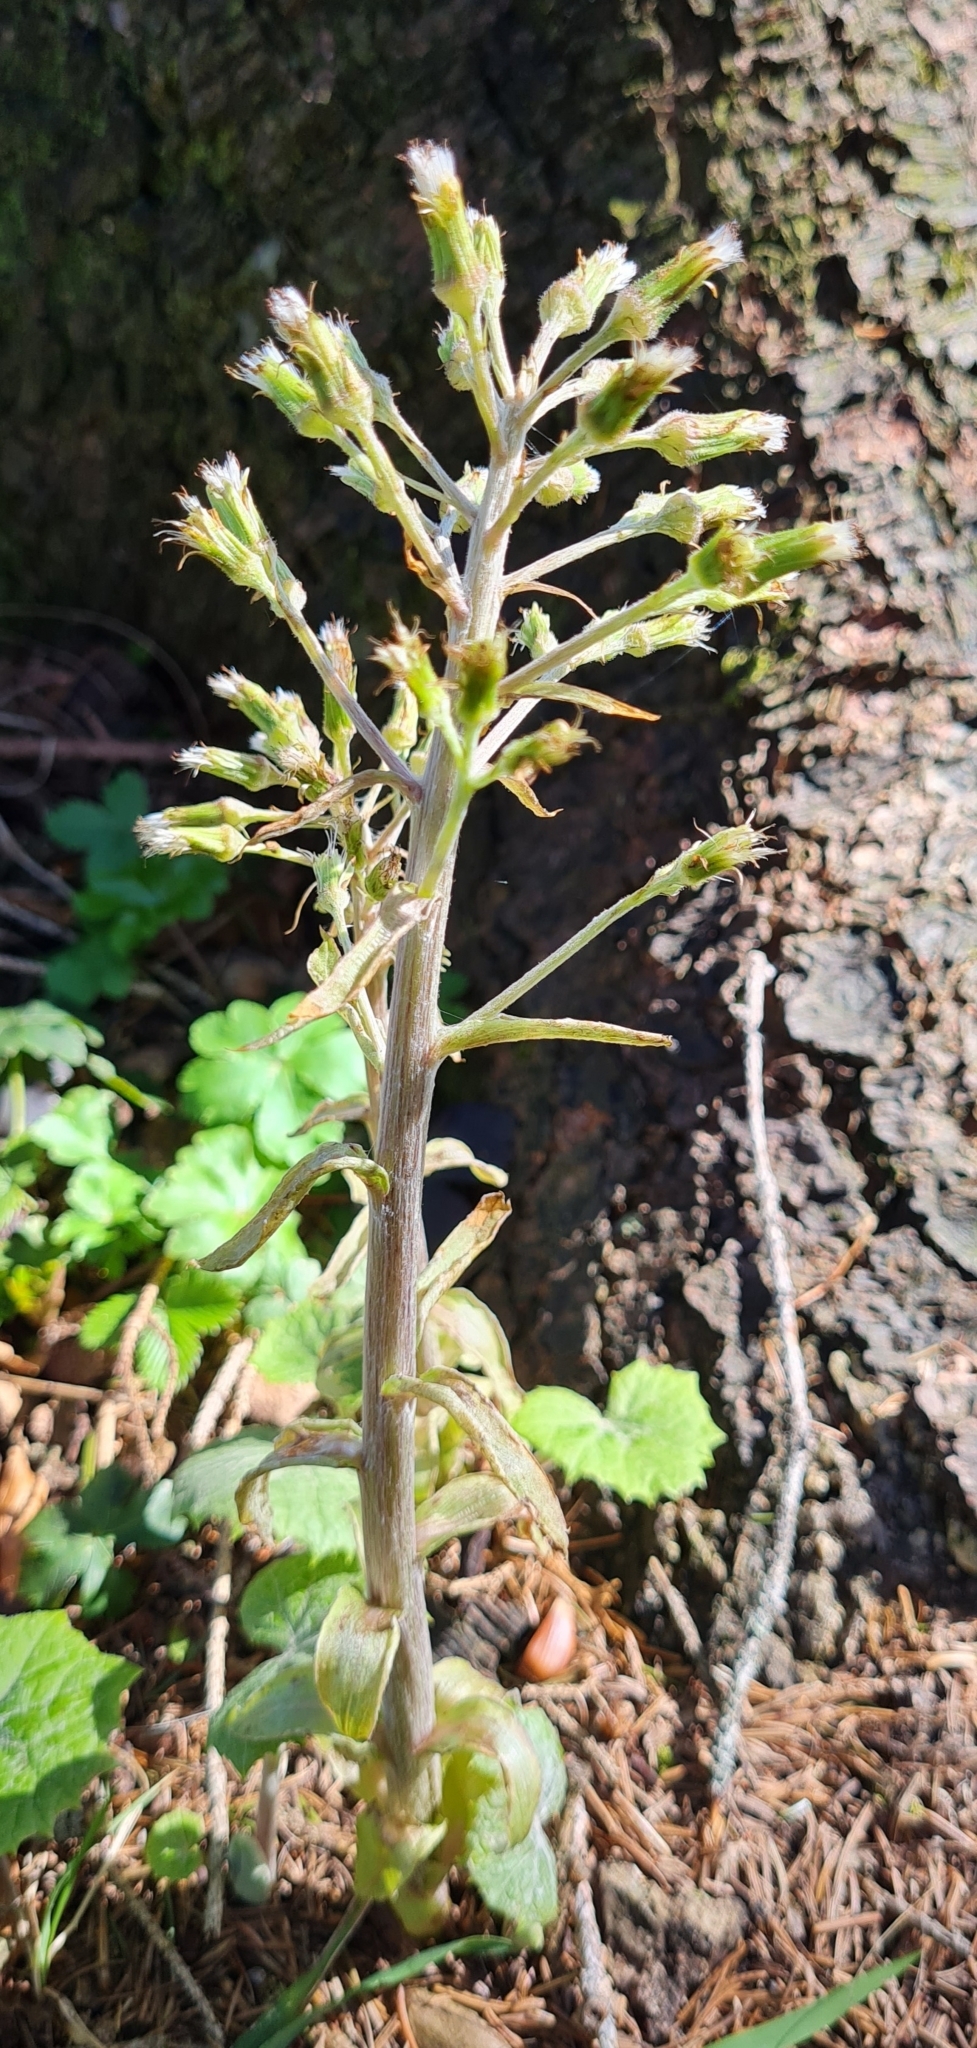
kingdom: Plantae
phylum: Tracheophyta
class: Magnoliopsida
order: Asterales
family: Asteraceae
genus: Petasites
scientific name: Petasites albus
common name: White butterbur
